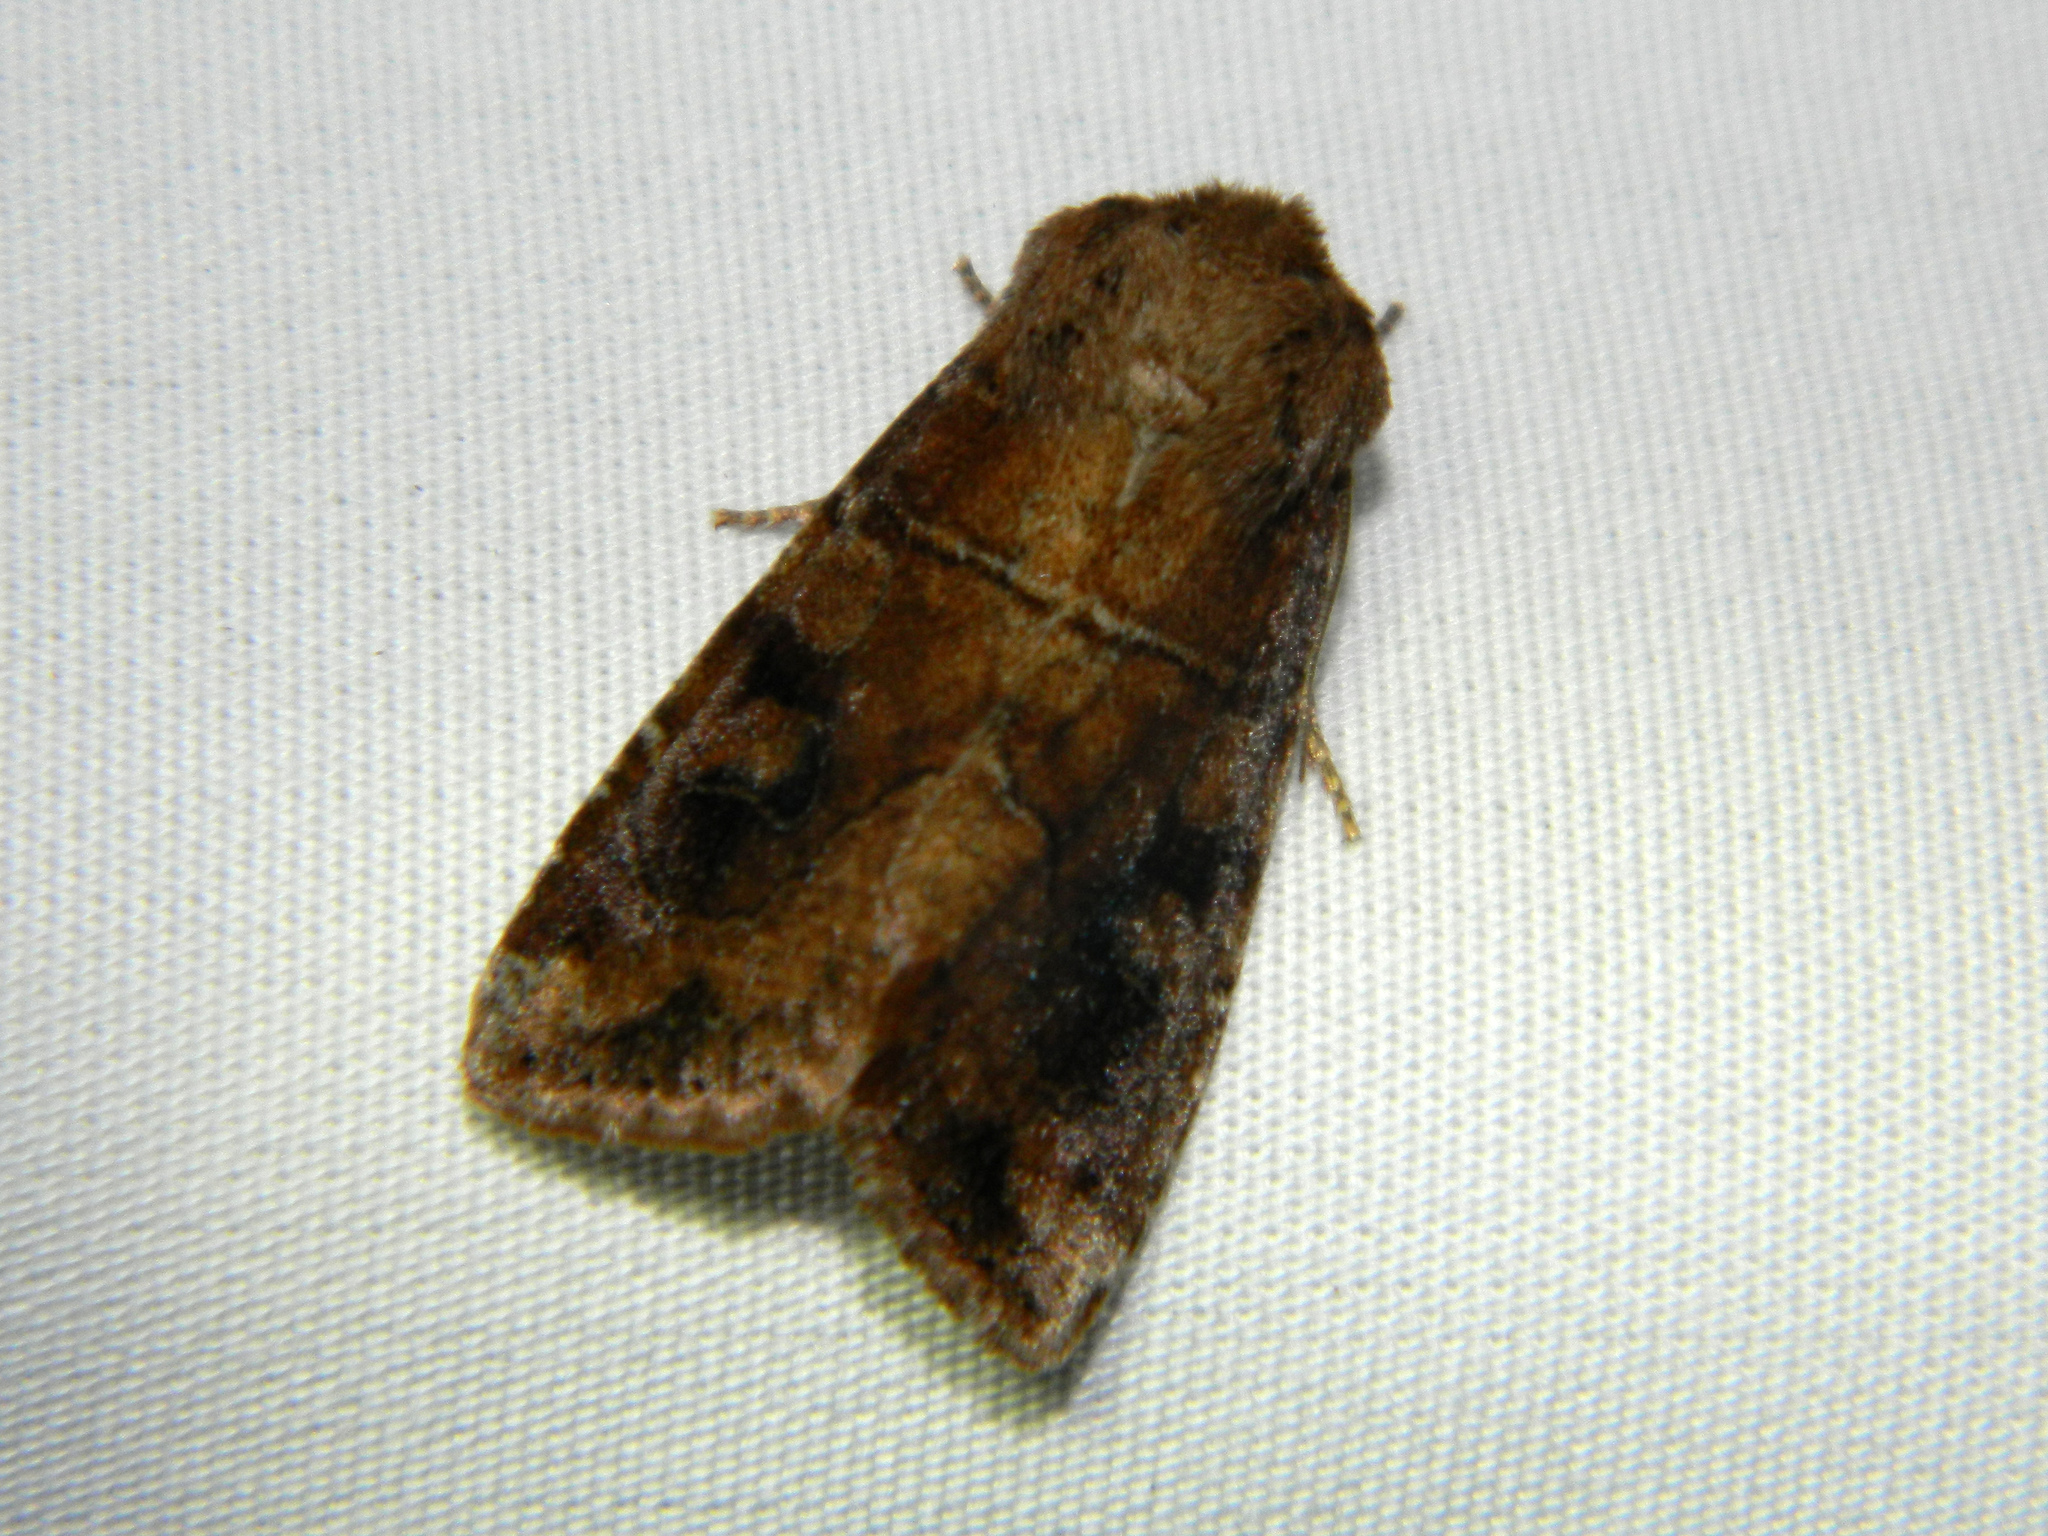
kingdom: Animalia
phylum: Arthropoda
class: Insecta
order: Lepidoptera
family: Noctuidae
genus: Crocigrapha
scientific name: Crocigrapha normani
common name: Norman's quaker
